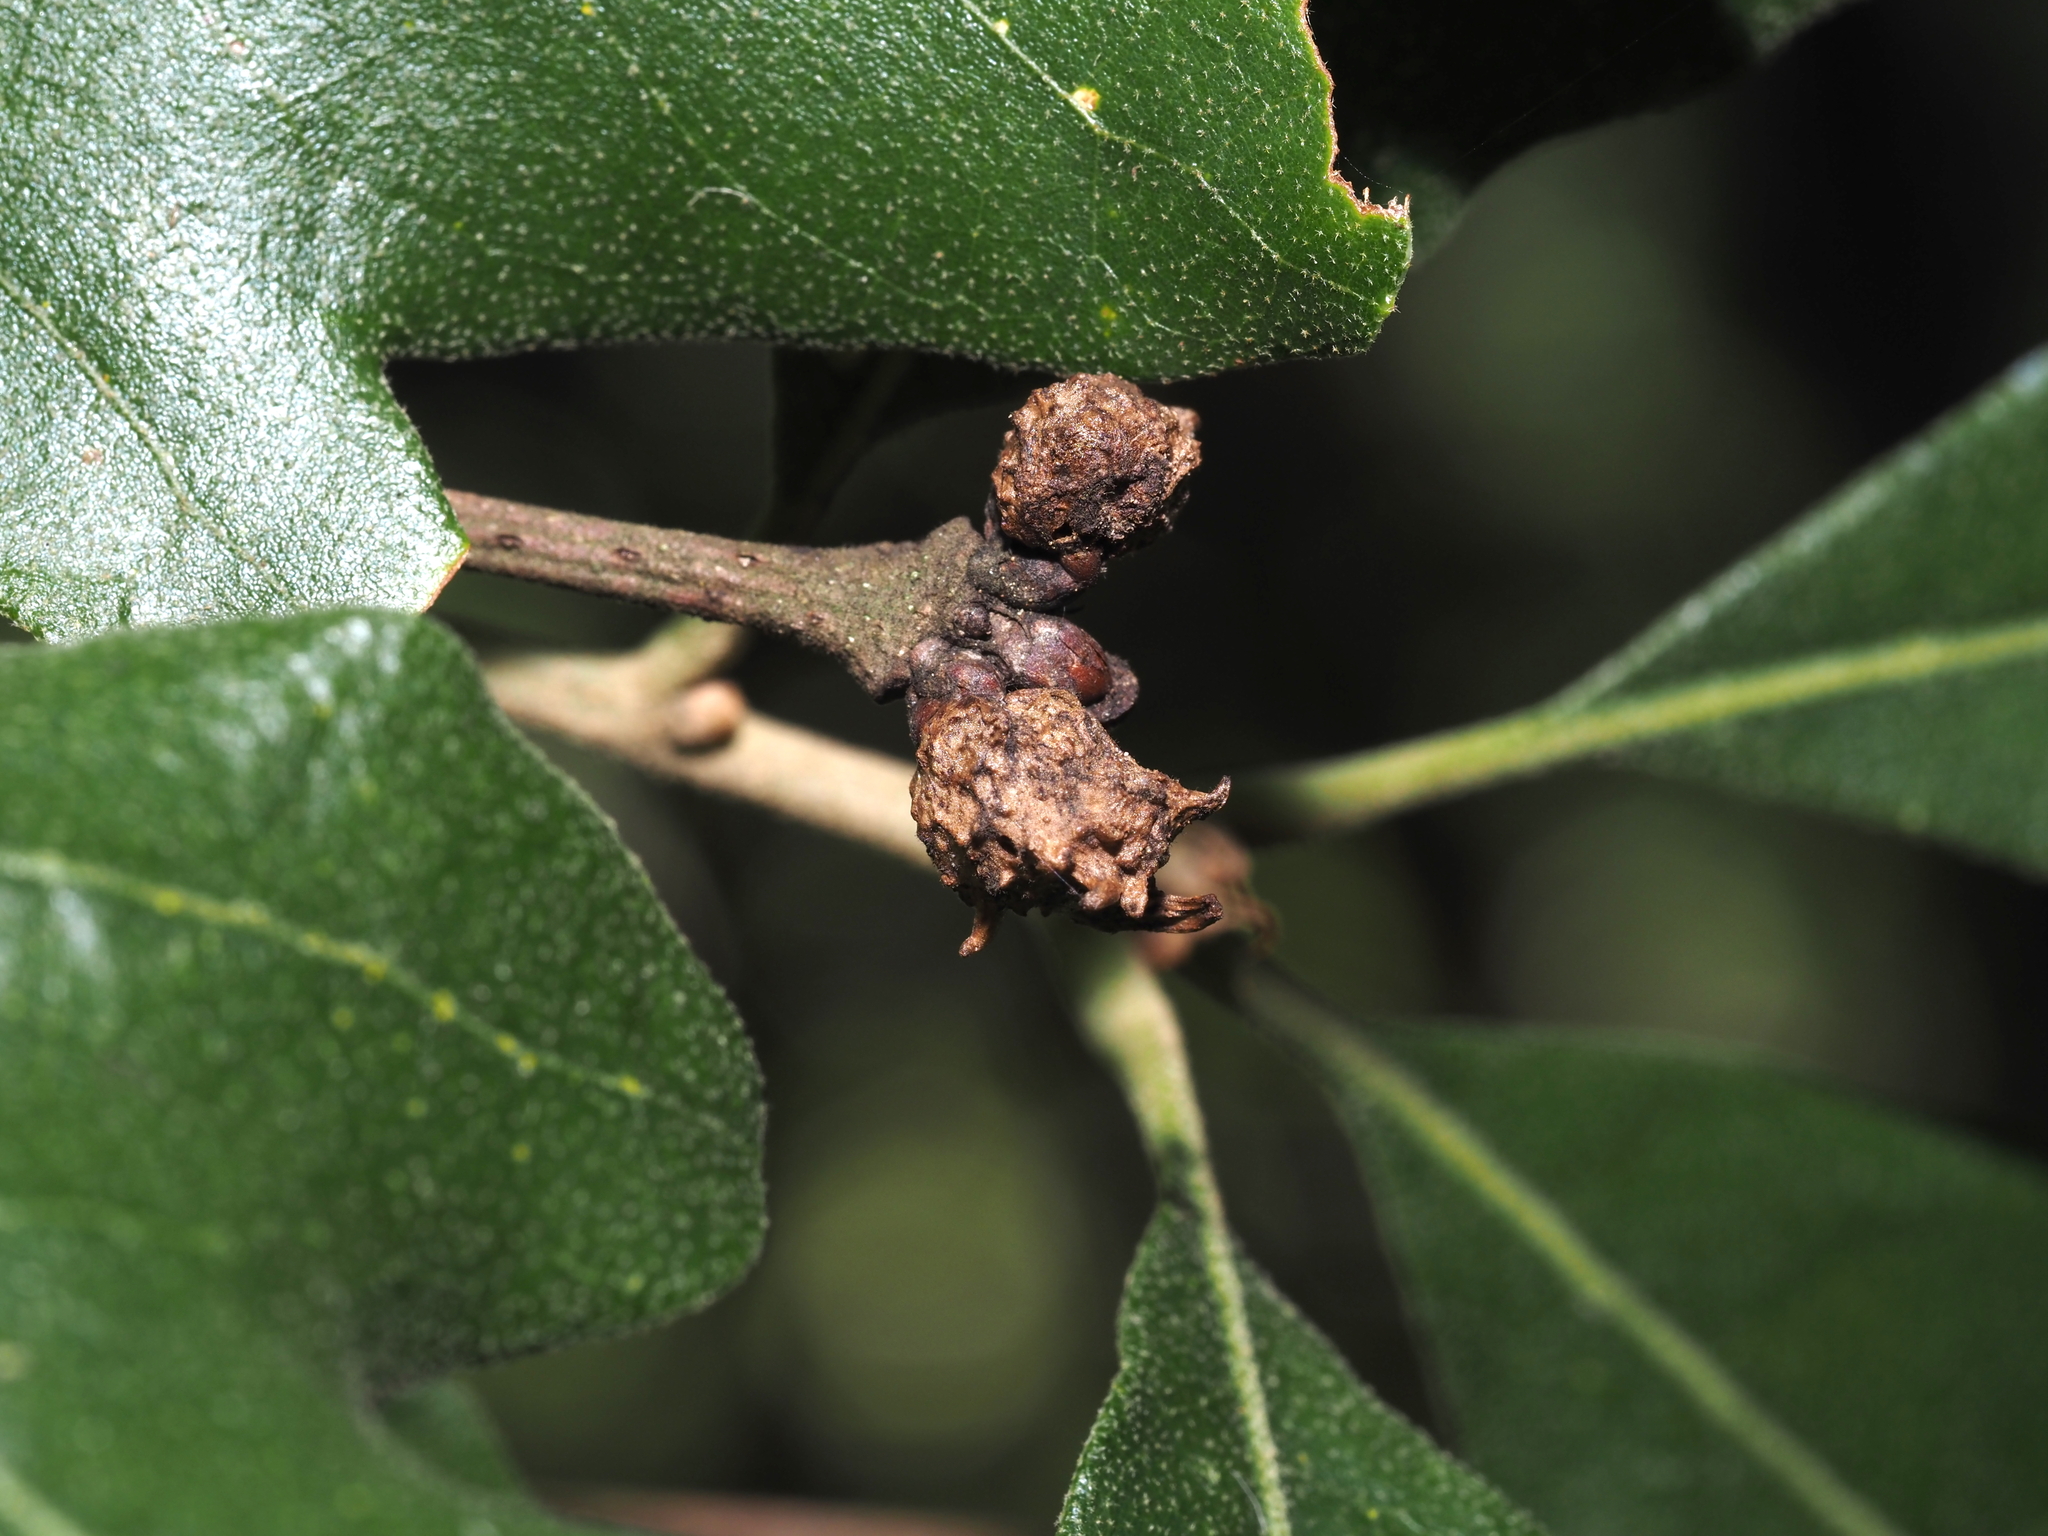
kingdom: Animalia
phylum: Arthropoda
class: Insecta
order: Hymenoptera
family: Cynipidae
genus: Andricus
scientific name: Andricus
